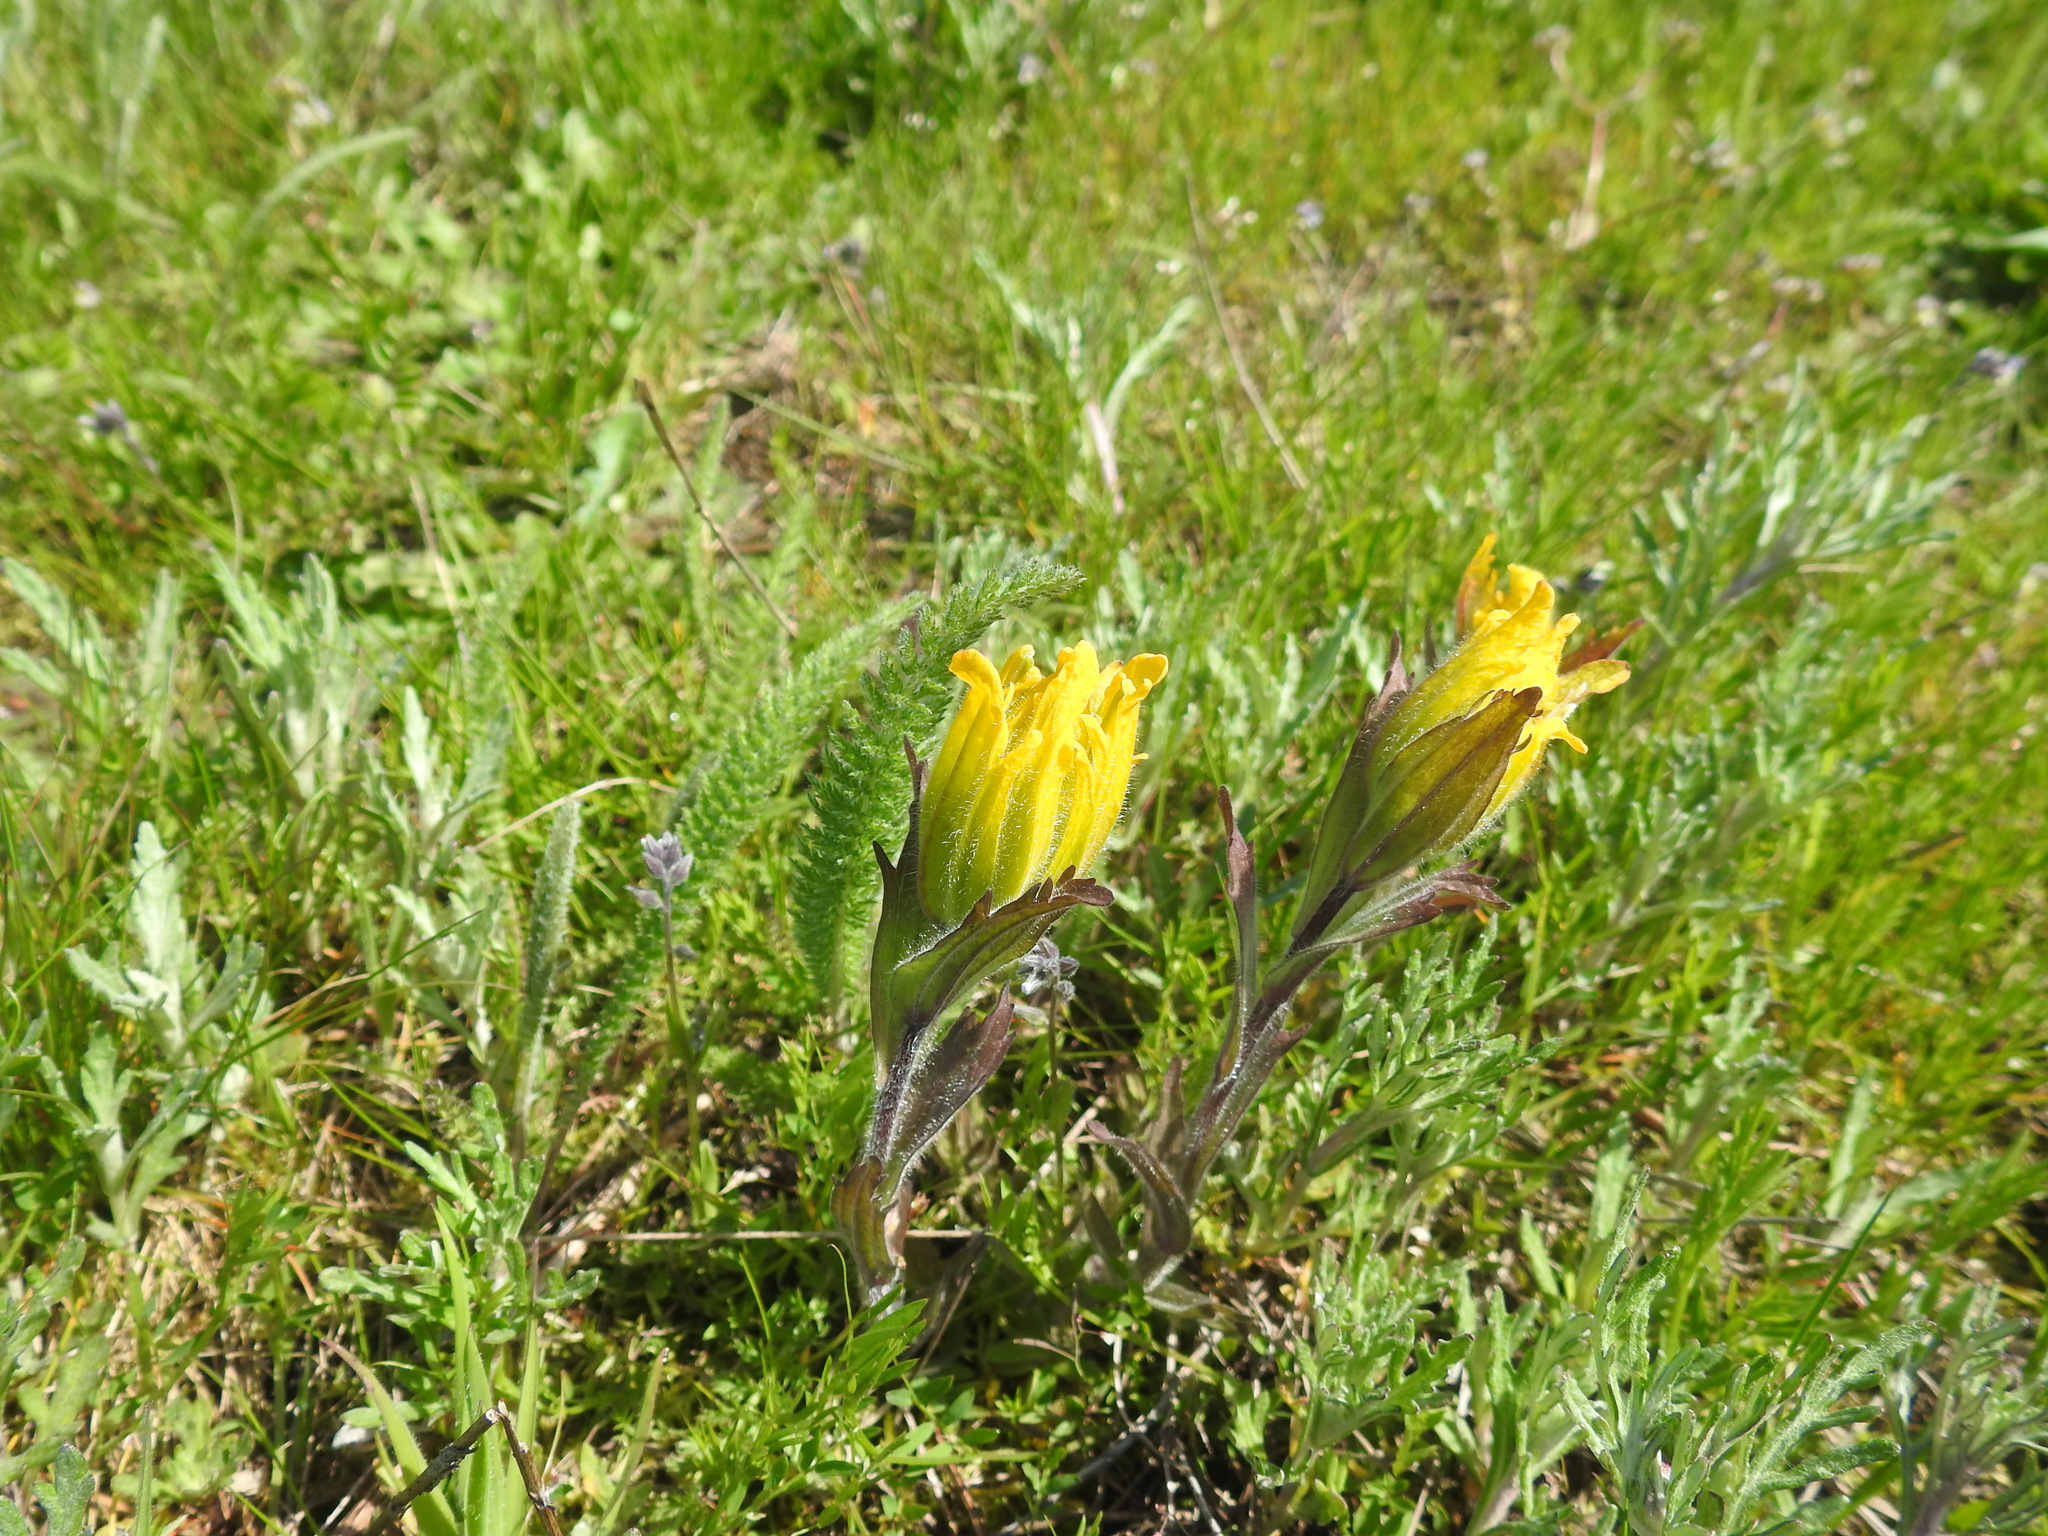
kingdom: Plantae
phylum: Tracheophyta
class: Magnoliopsida
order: Lamiales
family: Orobanchaceae
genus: Castilleja
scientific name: Castilleja levisecta
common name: Golden paintbrush
